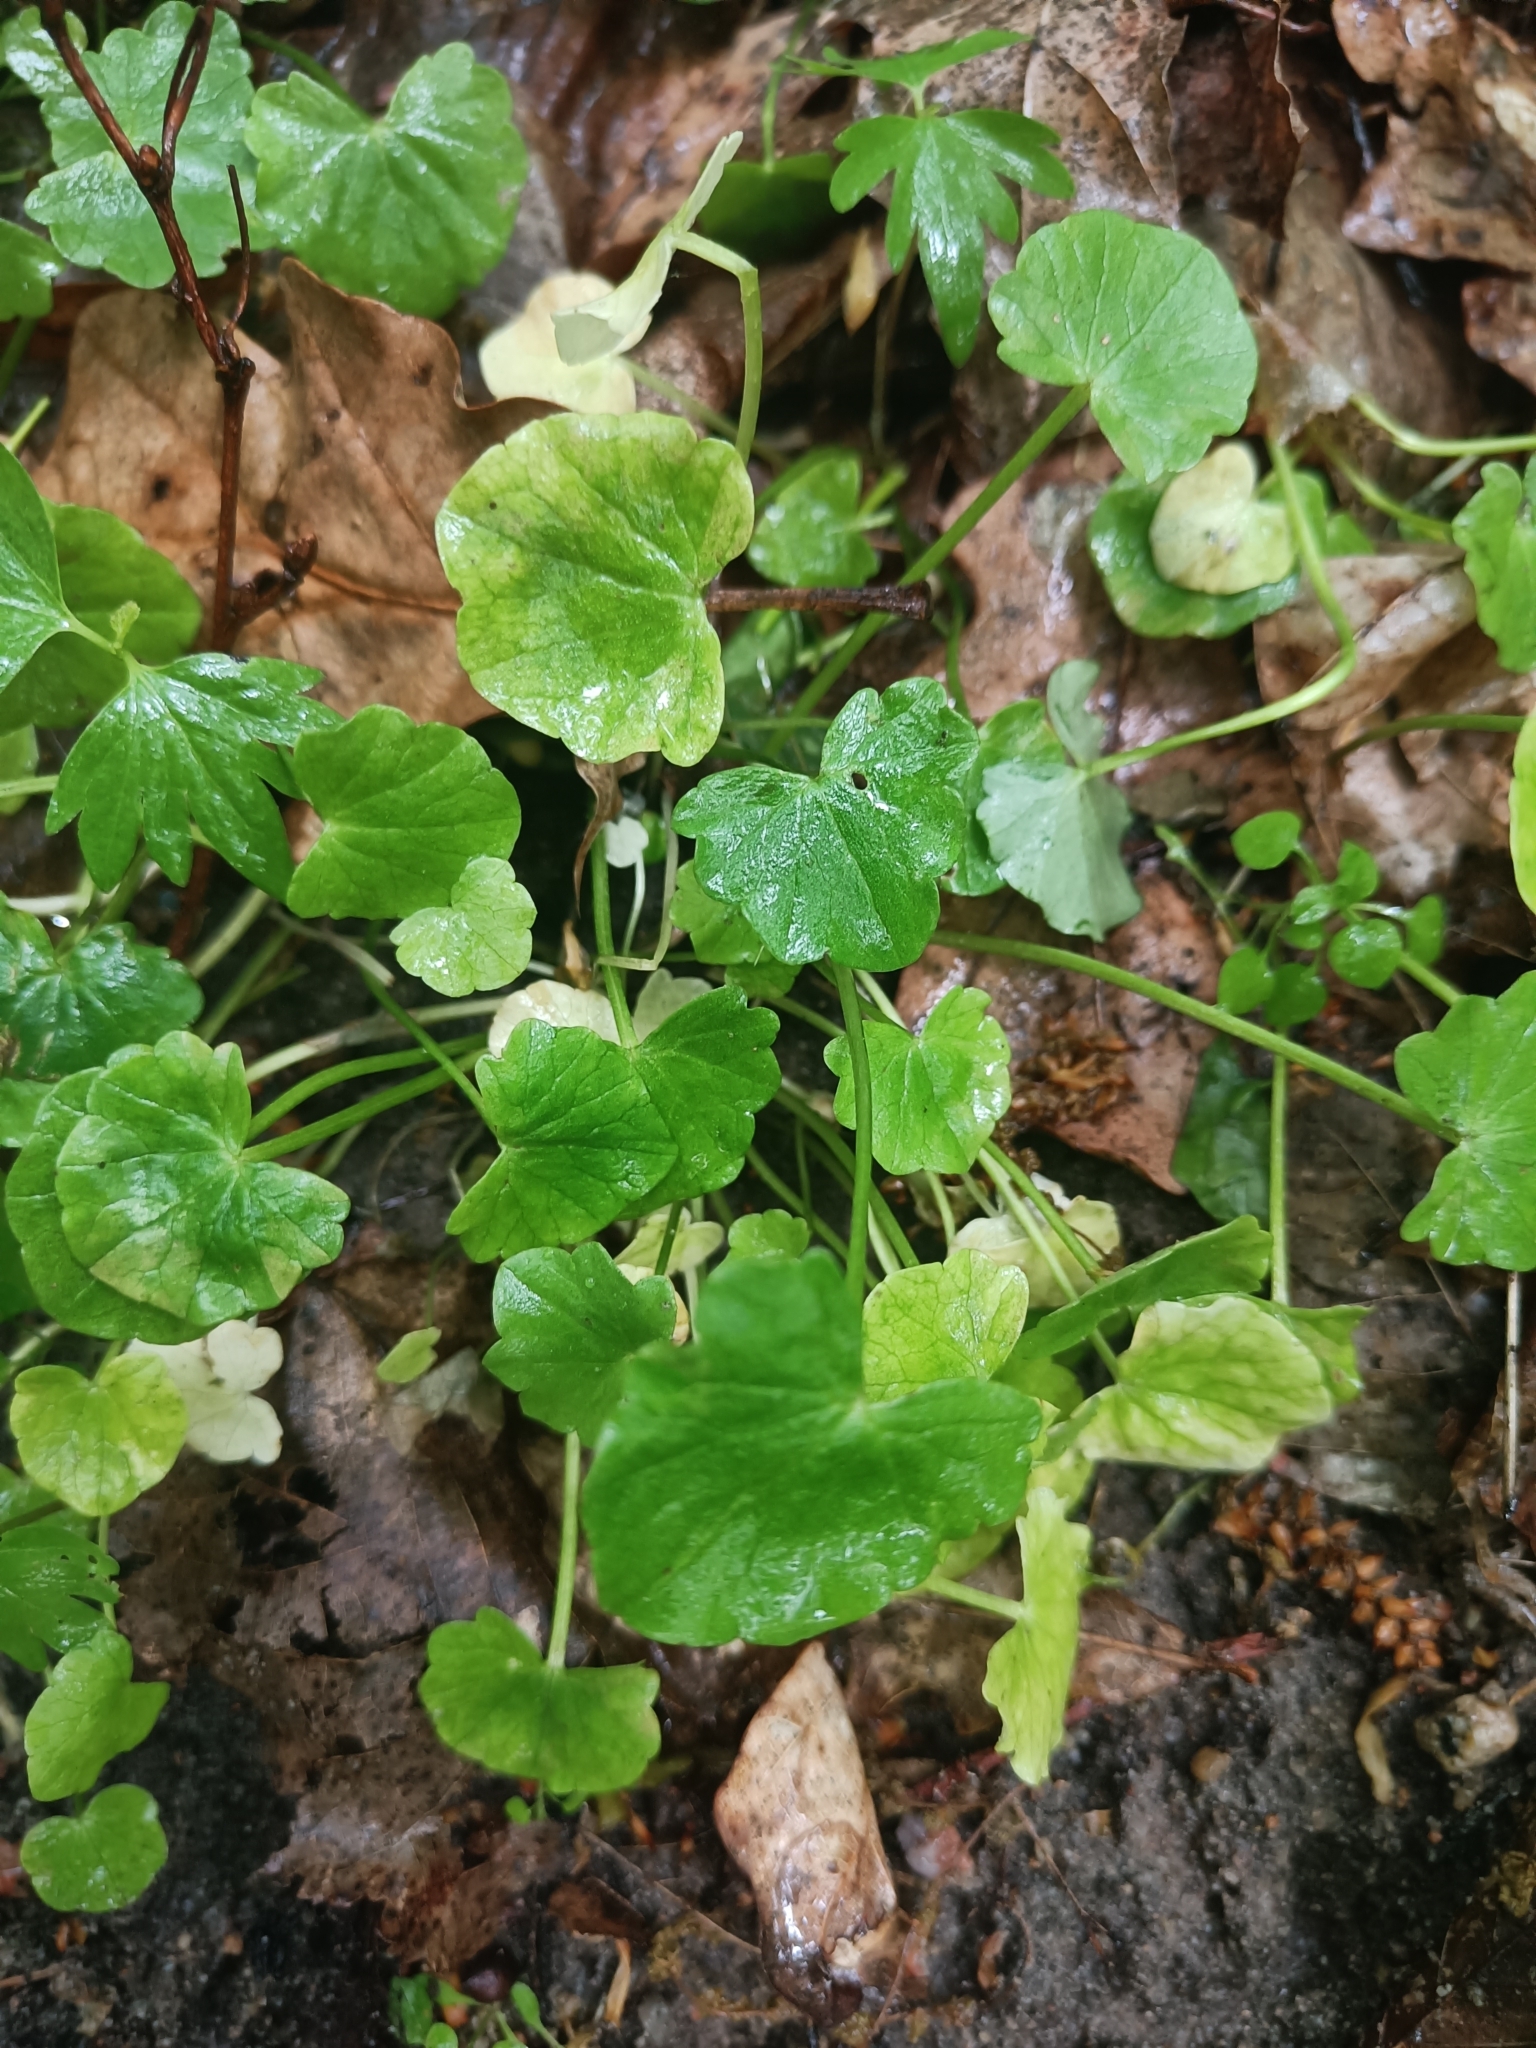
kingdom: Plantae
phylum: Tracheophyta
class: Magnoliopsida
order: Ranunculales
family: Ranunculaceae
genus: Ficaria
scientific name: Ficaria verna
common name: Lesser celandine
